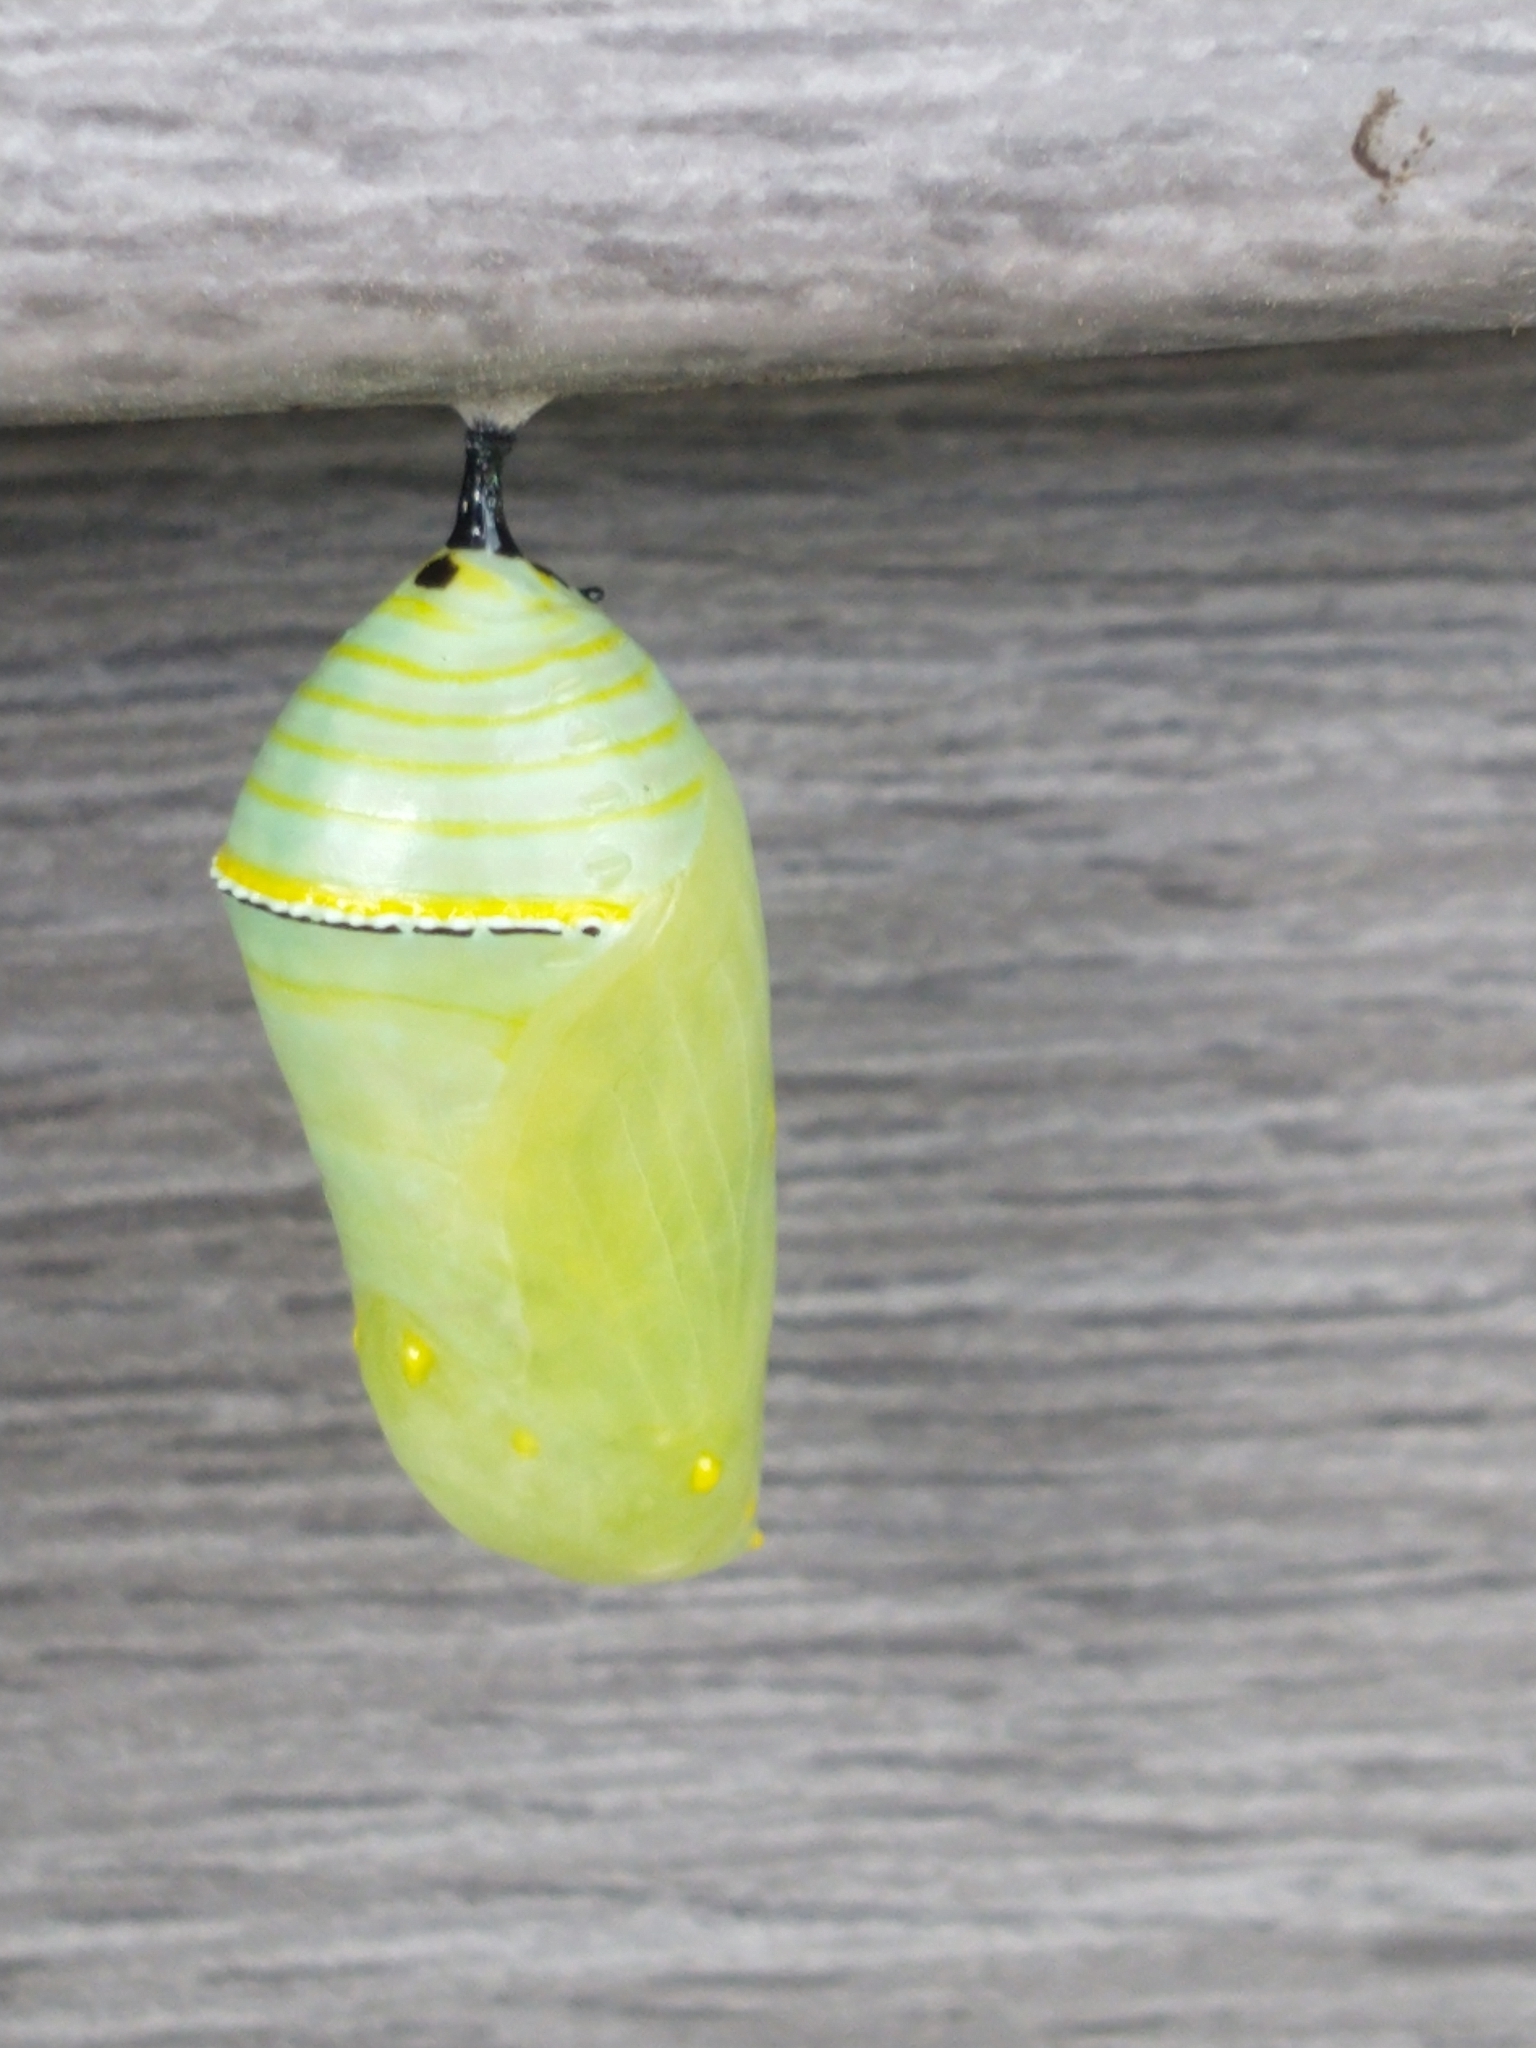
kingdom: Animalia
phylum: Arthropoda
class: Insecta
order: Lepidoptera
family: Nymphalidae
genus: Danaus
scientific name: Danaus plexippus
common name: Monarch
